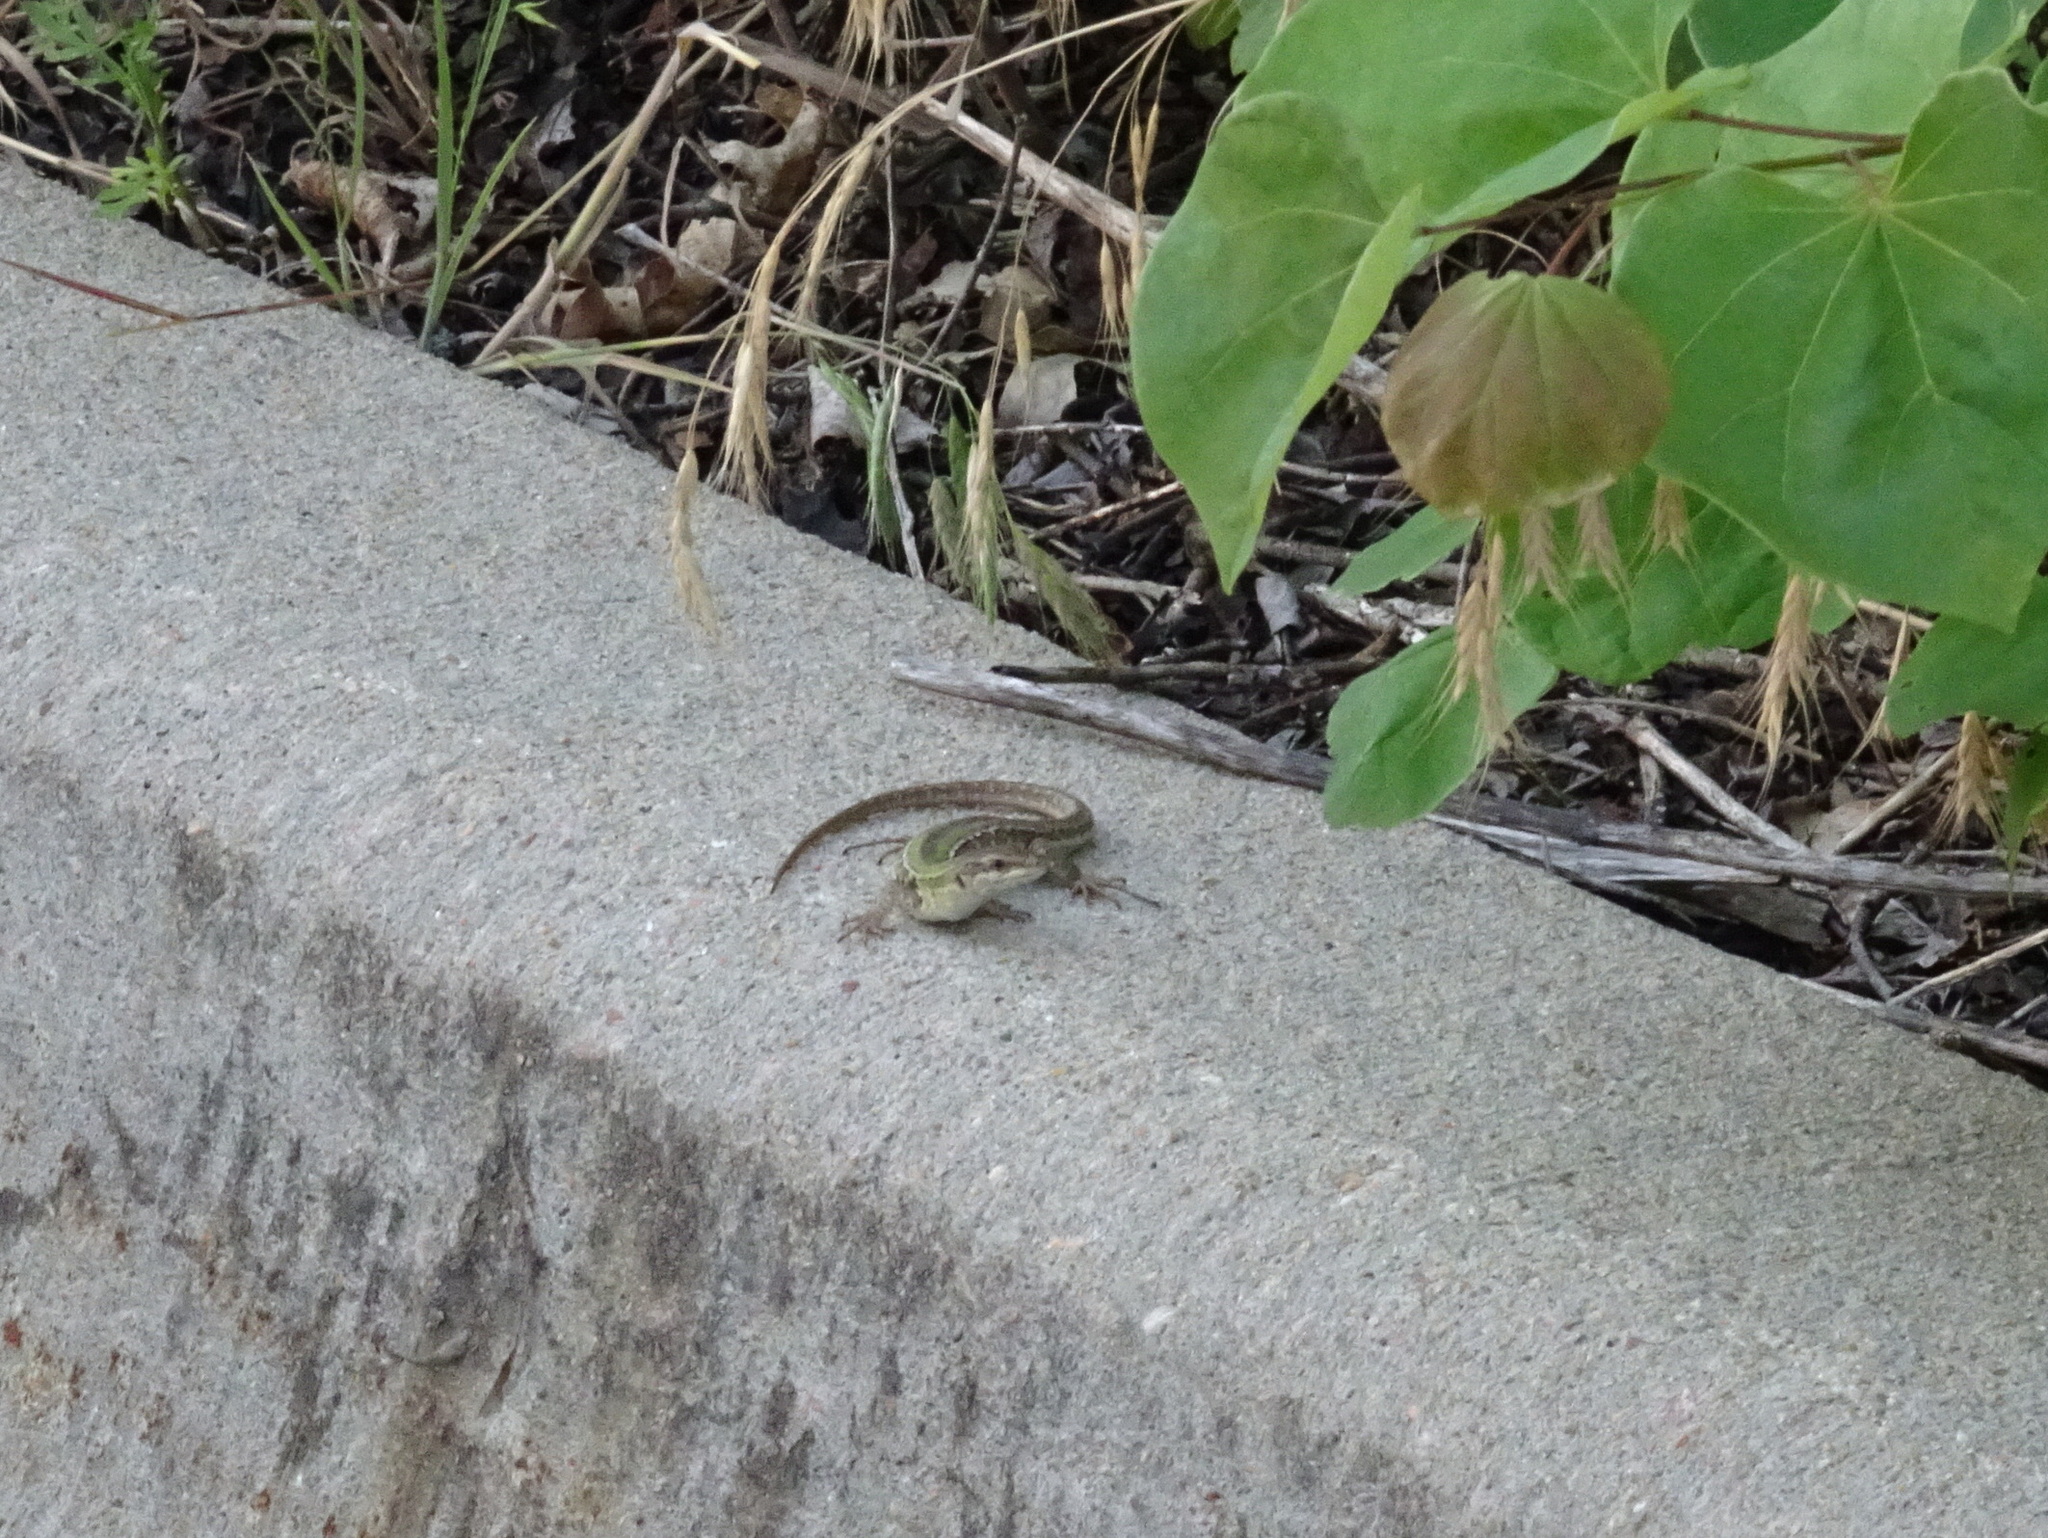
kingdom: Animalia
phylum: Chordata
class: Squamata
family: Lacertidae
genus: Podarcis
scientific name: Podarcis siculus
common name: Italian wall lizard
